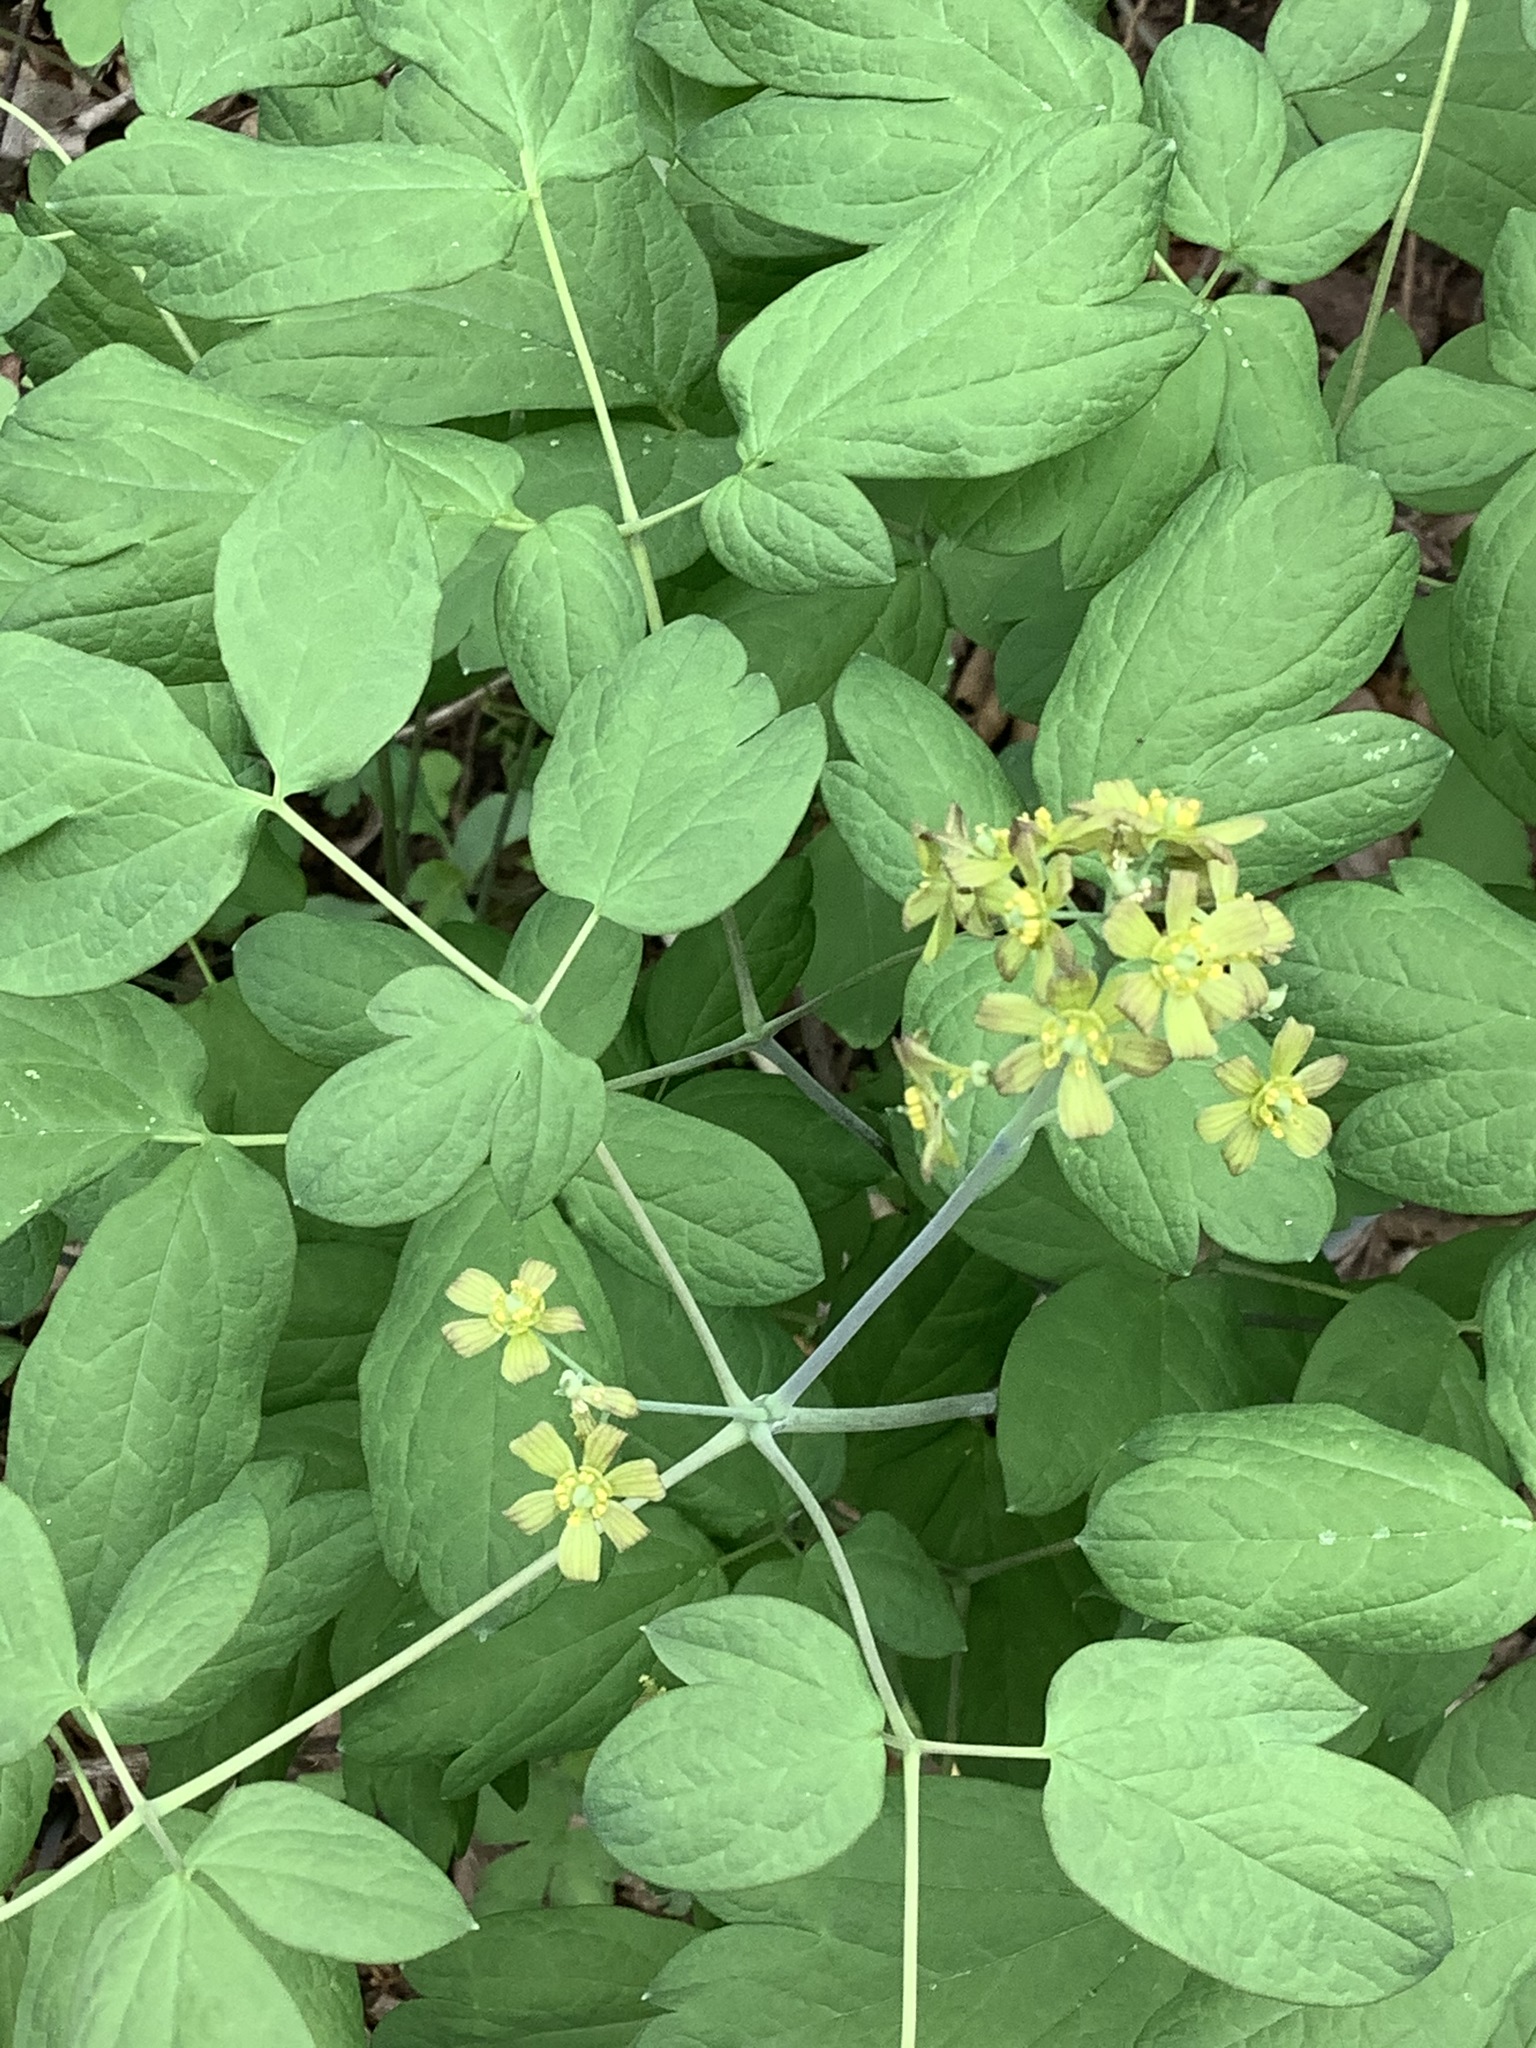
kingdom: Plantae
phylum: Tracheophyta
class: Magnoliopsida
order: Ranunculales
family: Berberidaceae
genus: Caulophyllum
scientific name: Caulophyllum thalictroides
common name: Blue cohosh
